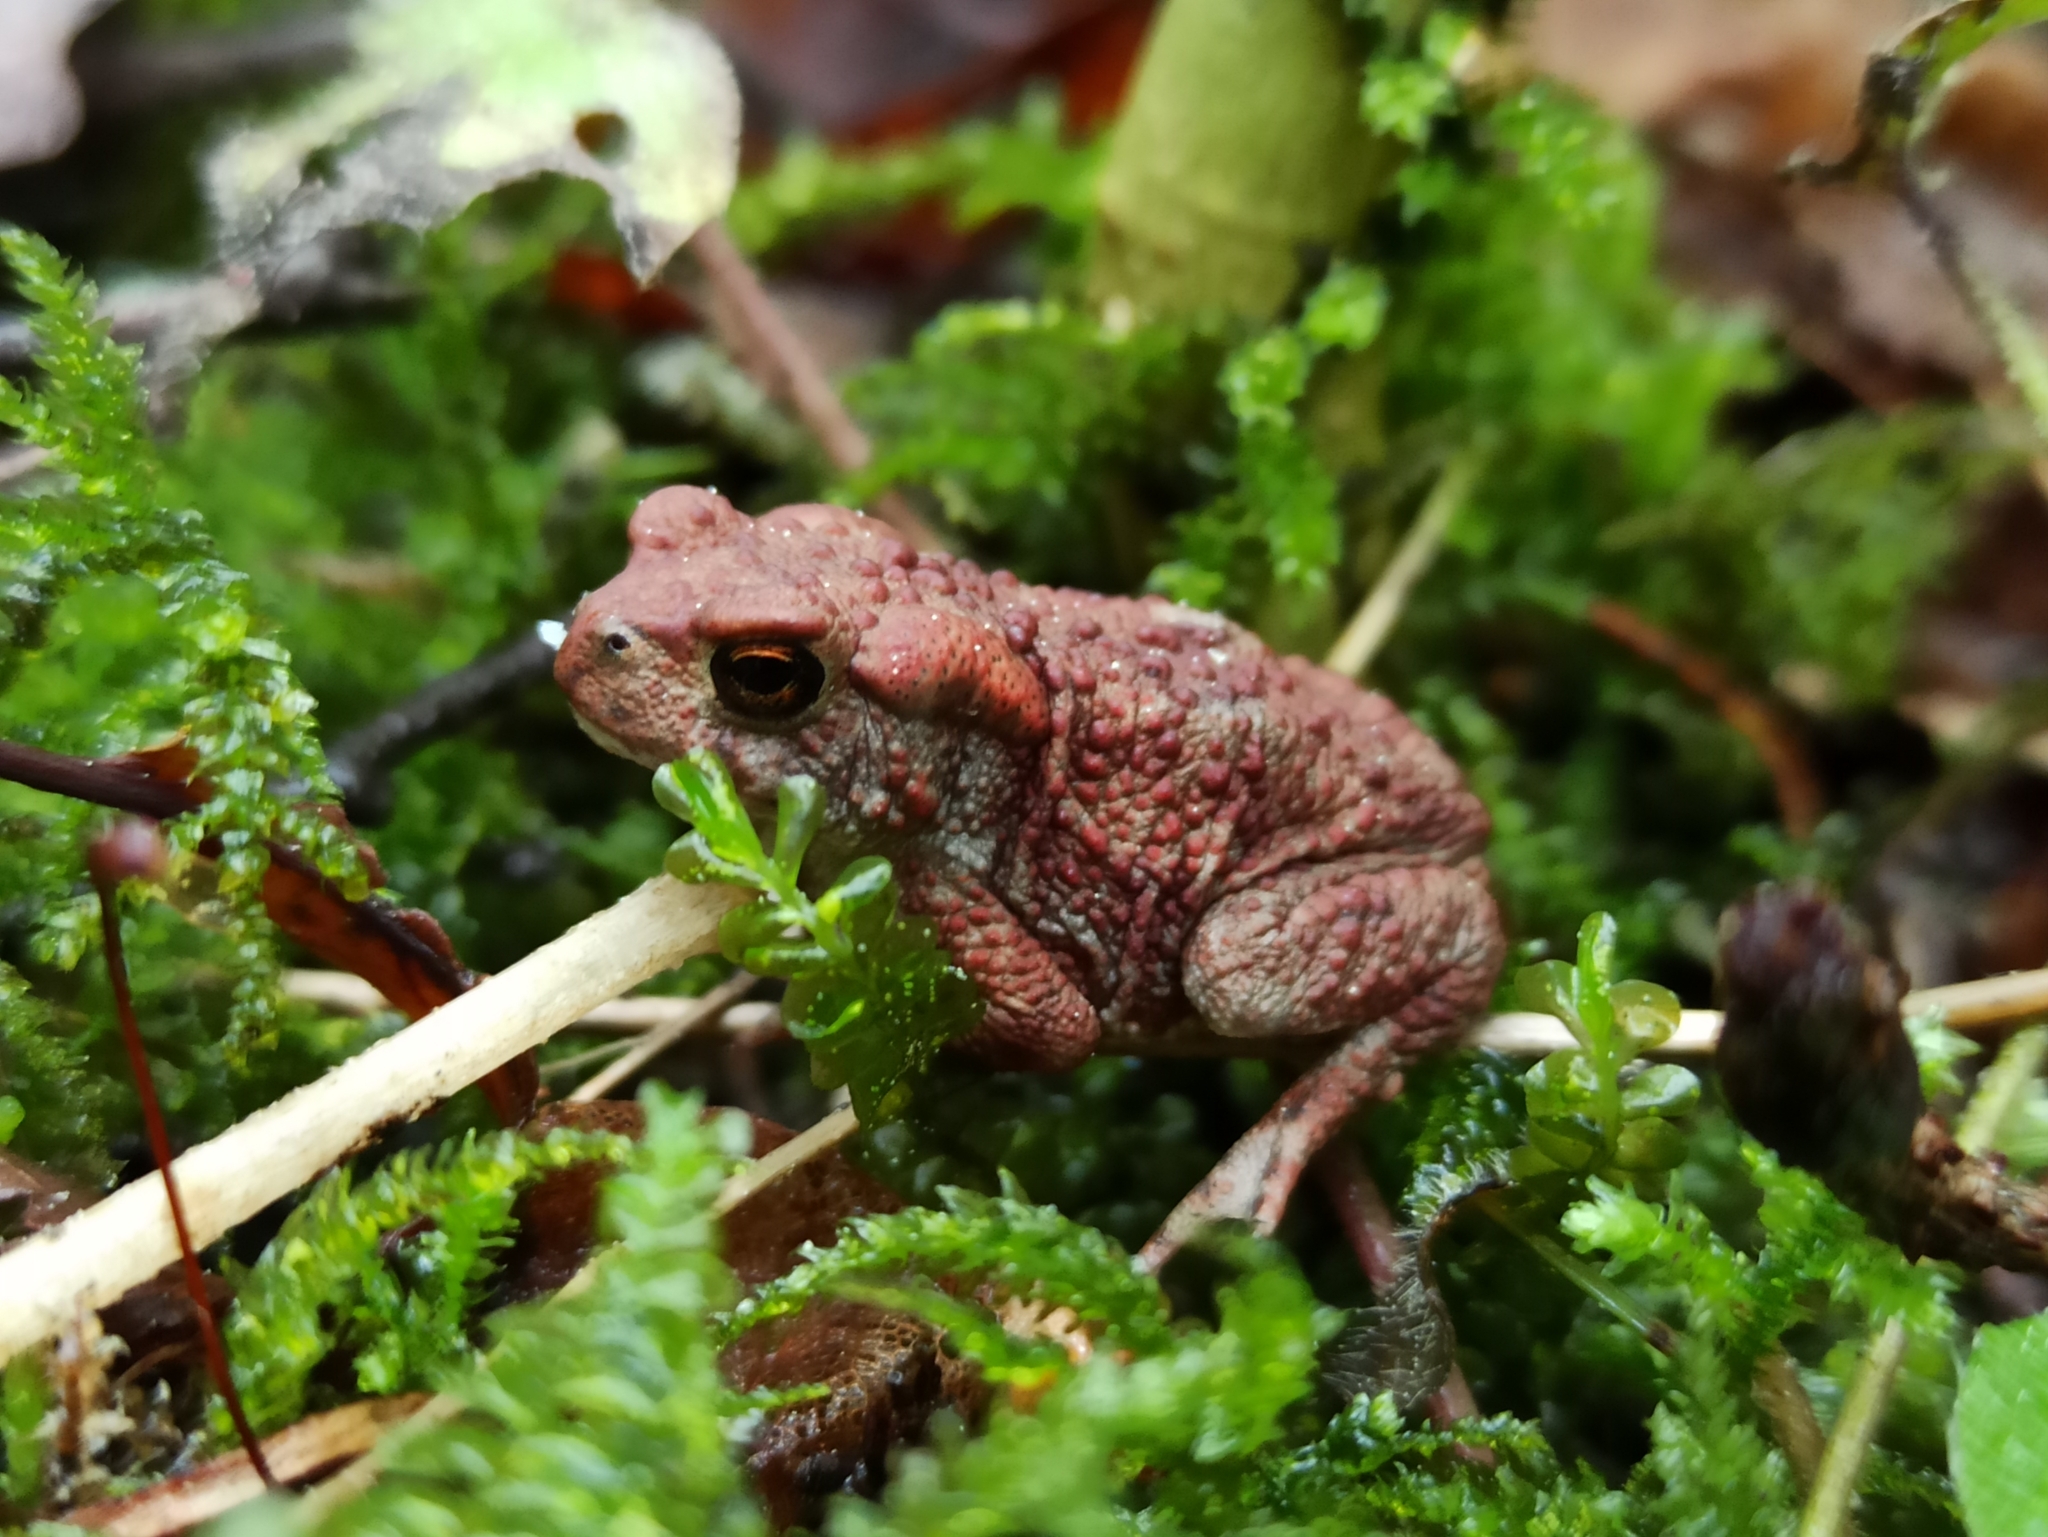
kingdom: Animalia
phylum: Chordata
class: Amphibia
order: Anura
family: Bufonidae
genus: Bufo
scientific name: Bufo bufo
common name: Common toad
